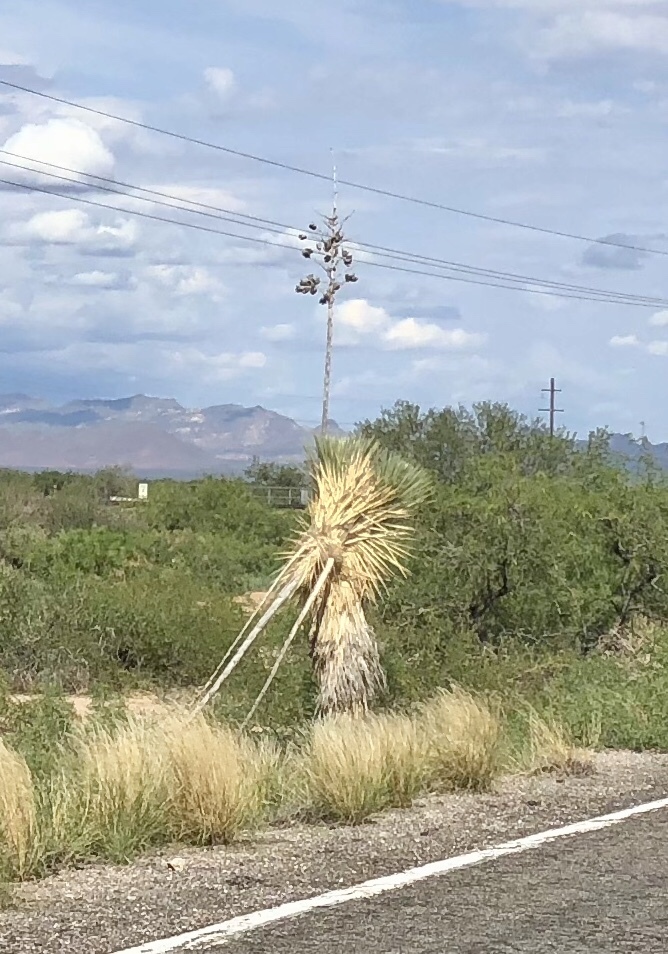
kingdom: Plantae
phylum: Tracheophyta
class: Liliopsida
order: Asparagales
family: Asparagaceae
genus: Yucca
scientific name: Yucca elata
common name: Palmella
